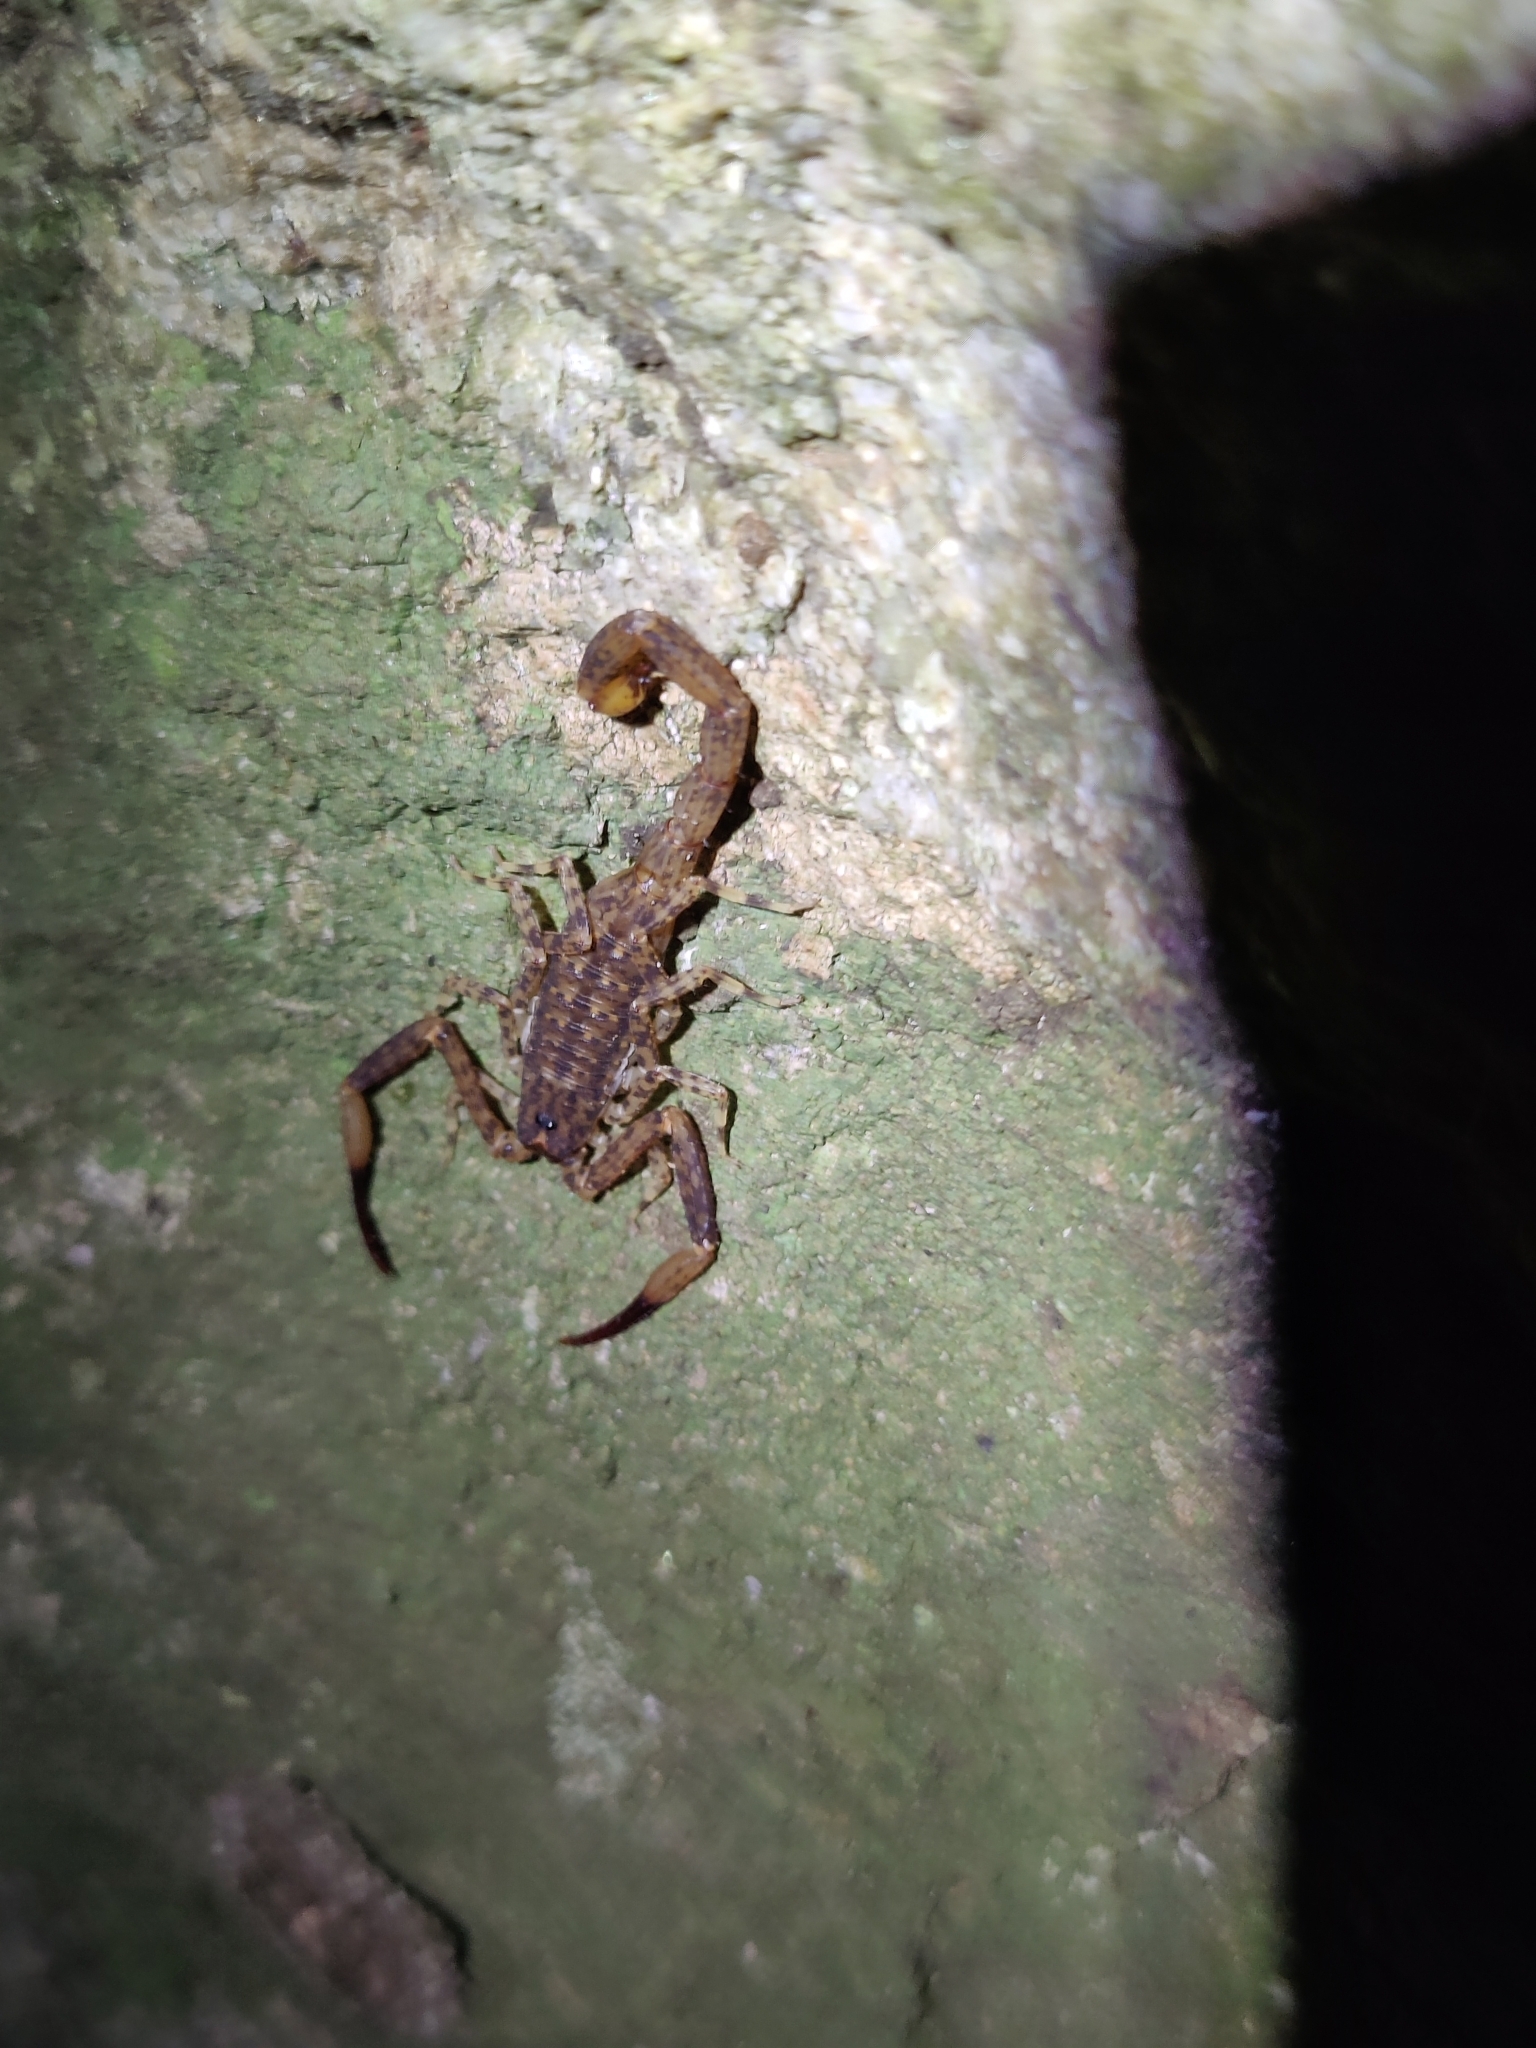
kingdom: Animalia
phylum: Arthropoda
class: Arachnida
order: Scorpiones
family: Buthidae
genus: Isometrus
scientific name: Isometrus thurstoni
